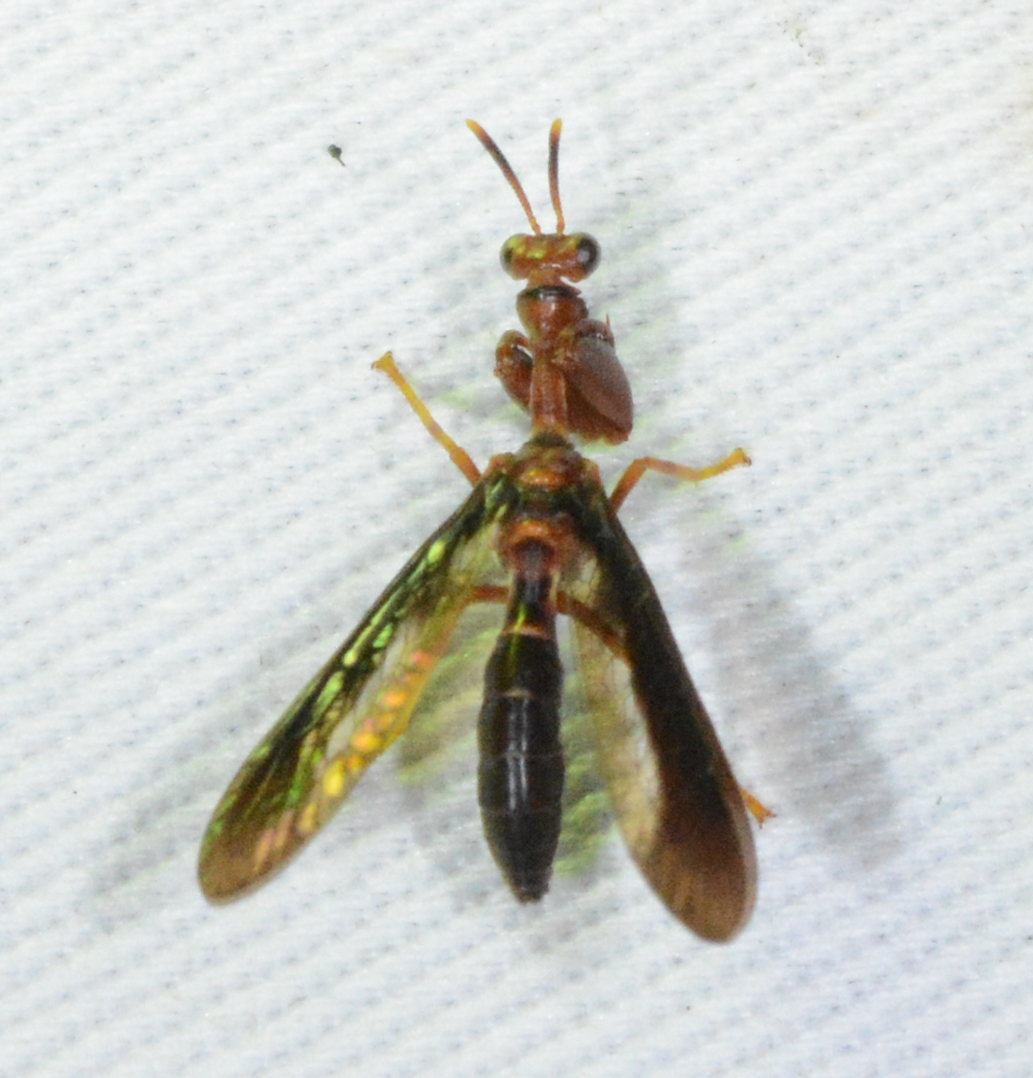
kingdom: Animalia
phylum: Arthropoda
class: Insecta
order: Neuroptera
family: Mantispidae
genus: Climaciella
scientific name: Climaciella brunnea
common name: Brown wasp mantidfly
